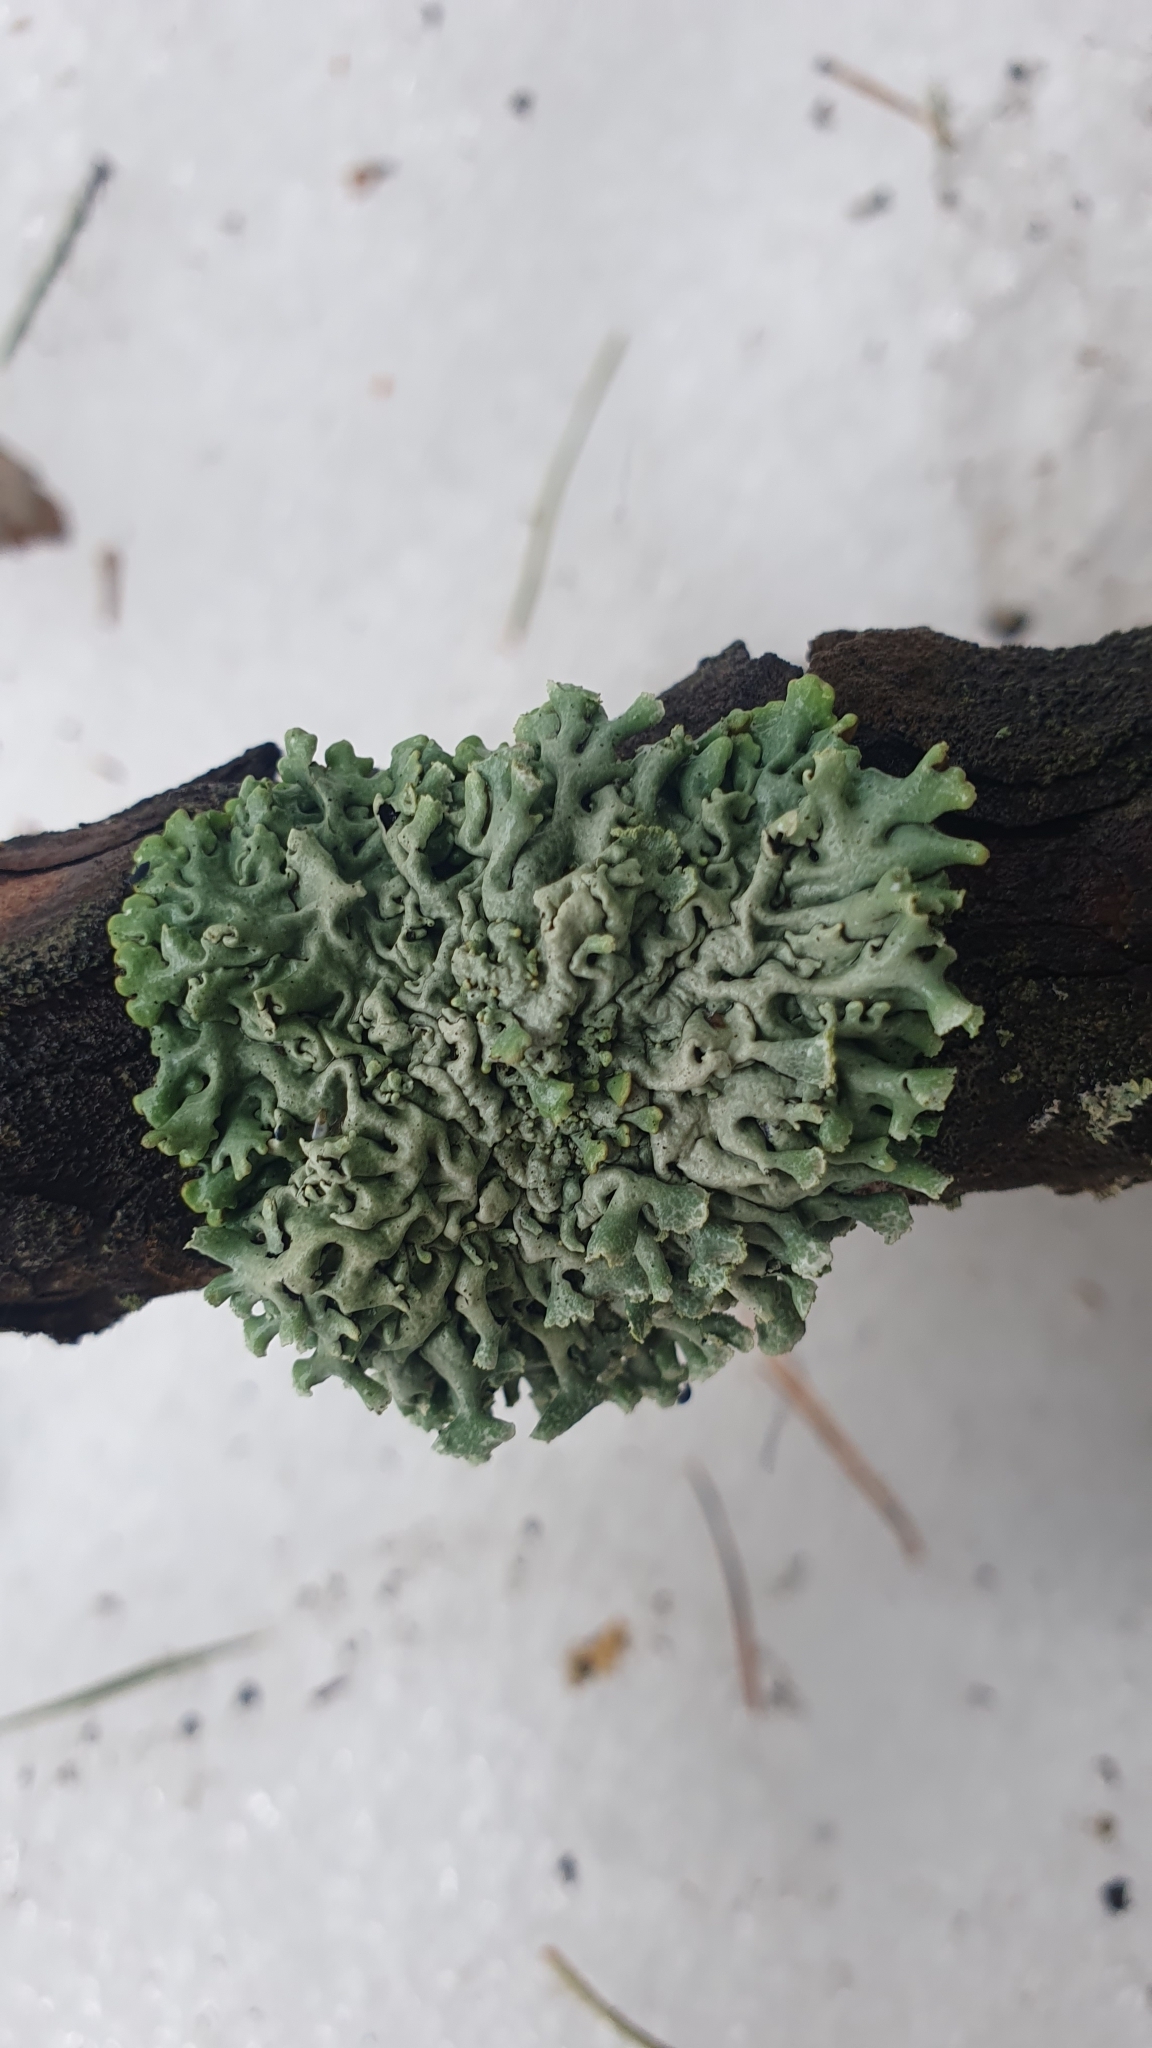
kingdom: Fungi
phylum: Ascomycota
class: Lecanoromycetes
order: Lecanorales
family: Parmeliaceae
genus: Hypogymnia
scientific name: Hypogymnia physodes
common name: Dark crottle
